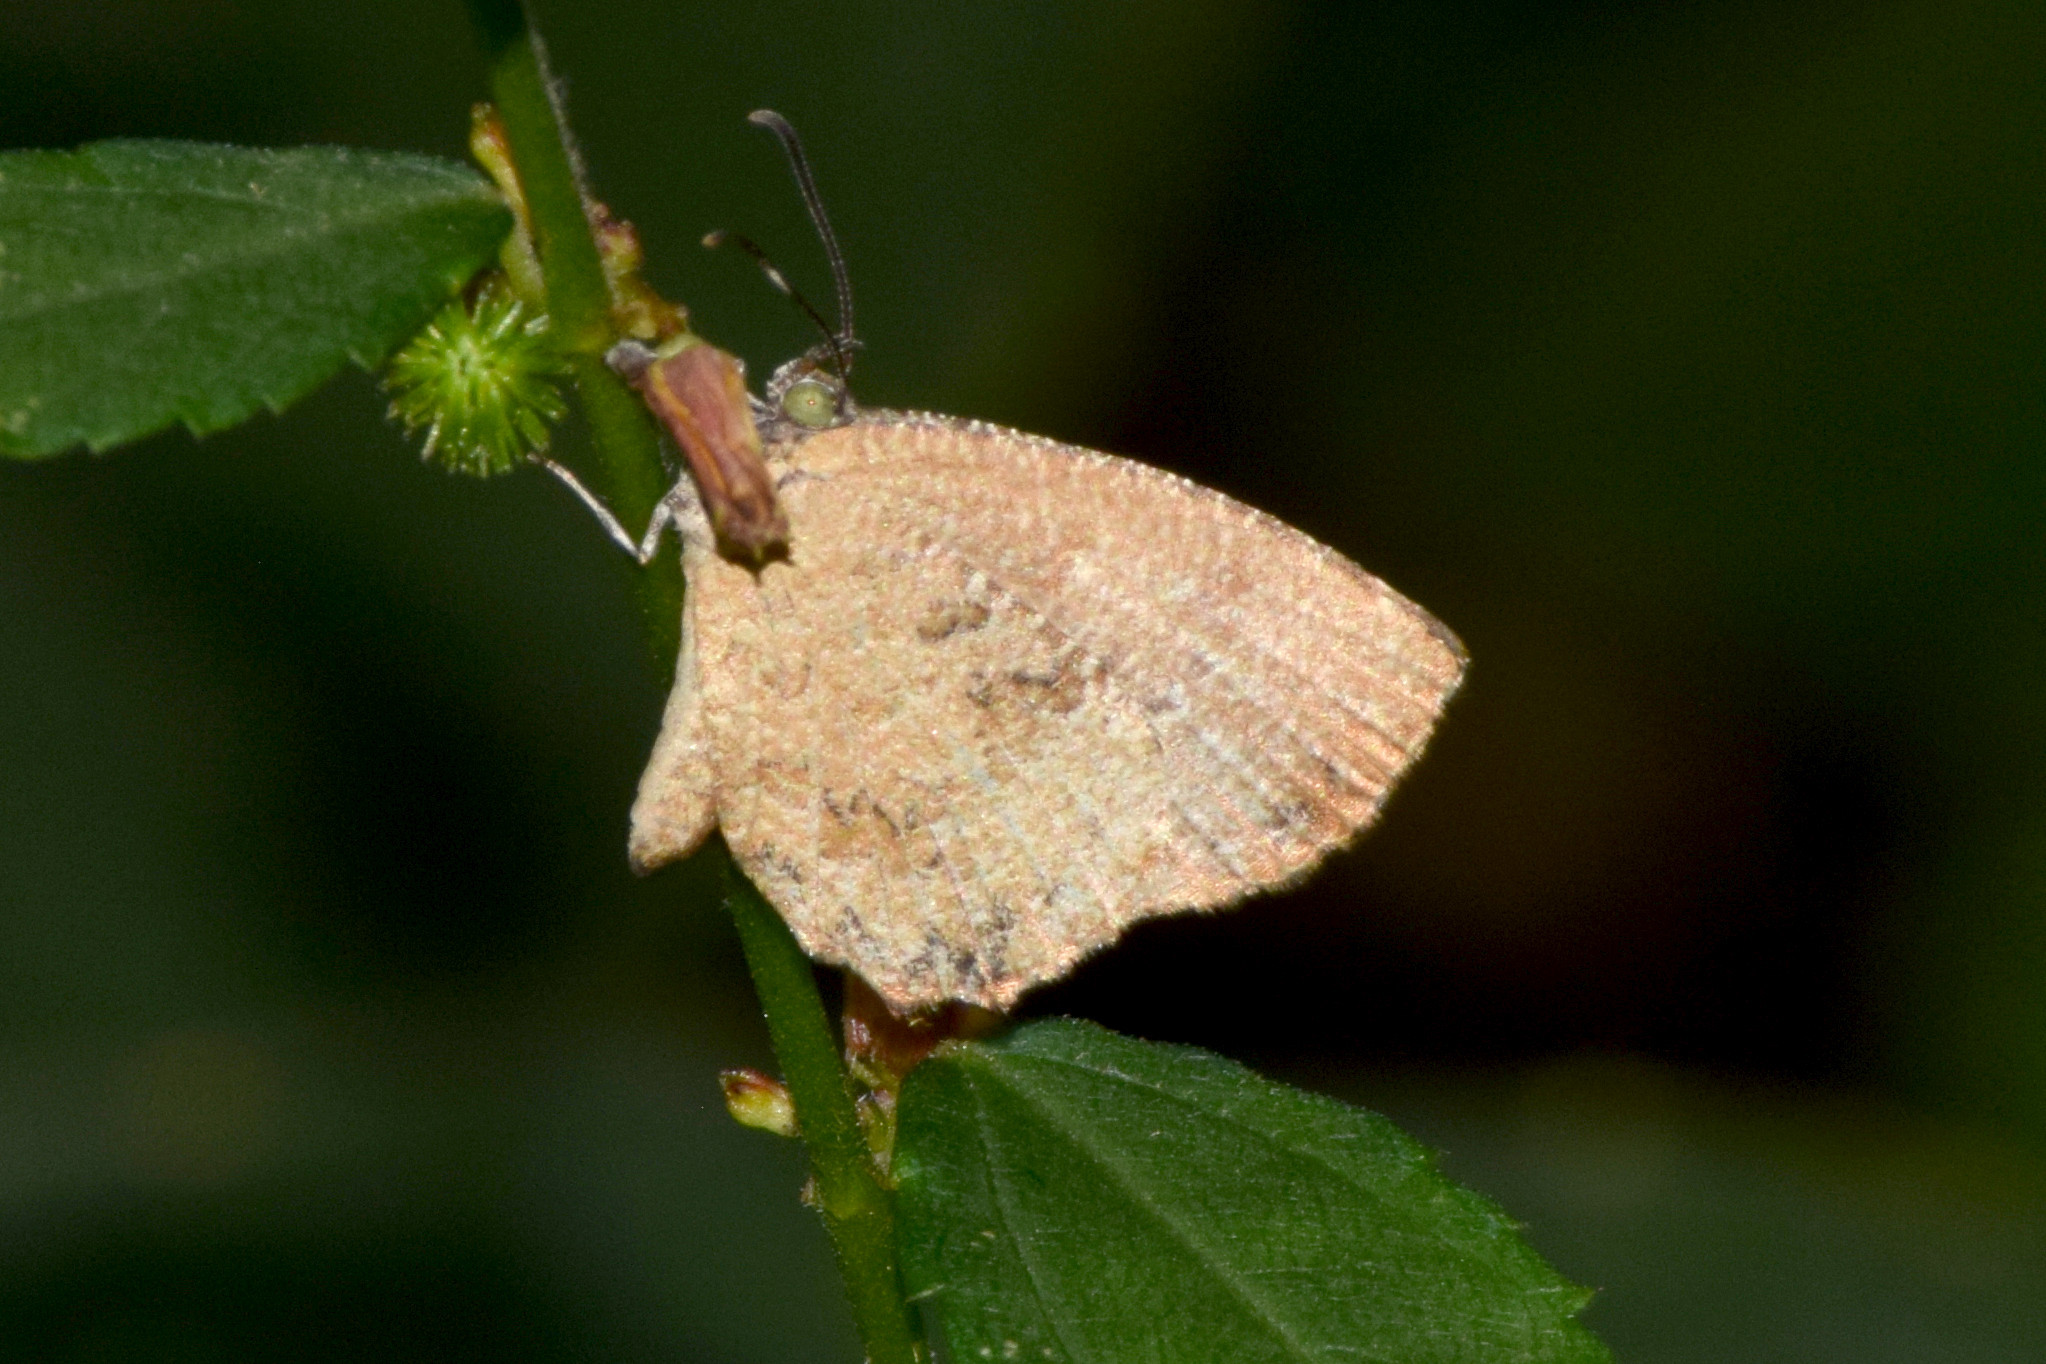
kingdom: Animalia
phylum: Arthropoda
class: Insecta
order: Lepidoptera
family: Lycaenidae
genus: Logania
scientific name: Logania distanti
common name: Dark mottle
